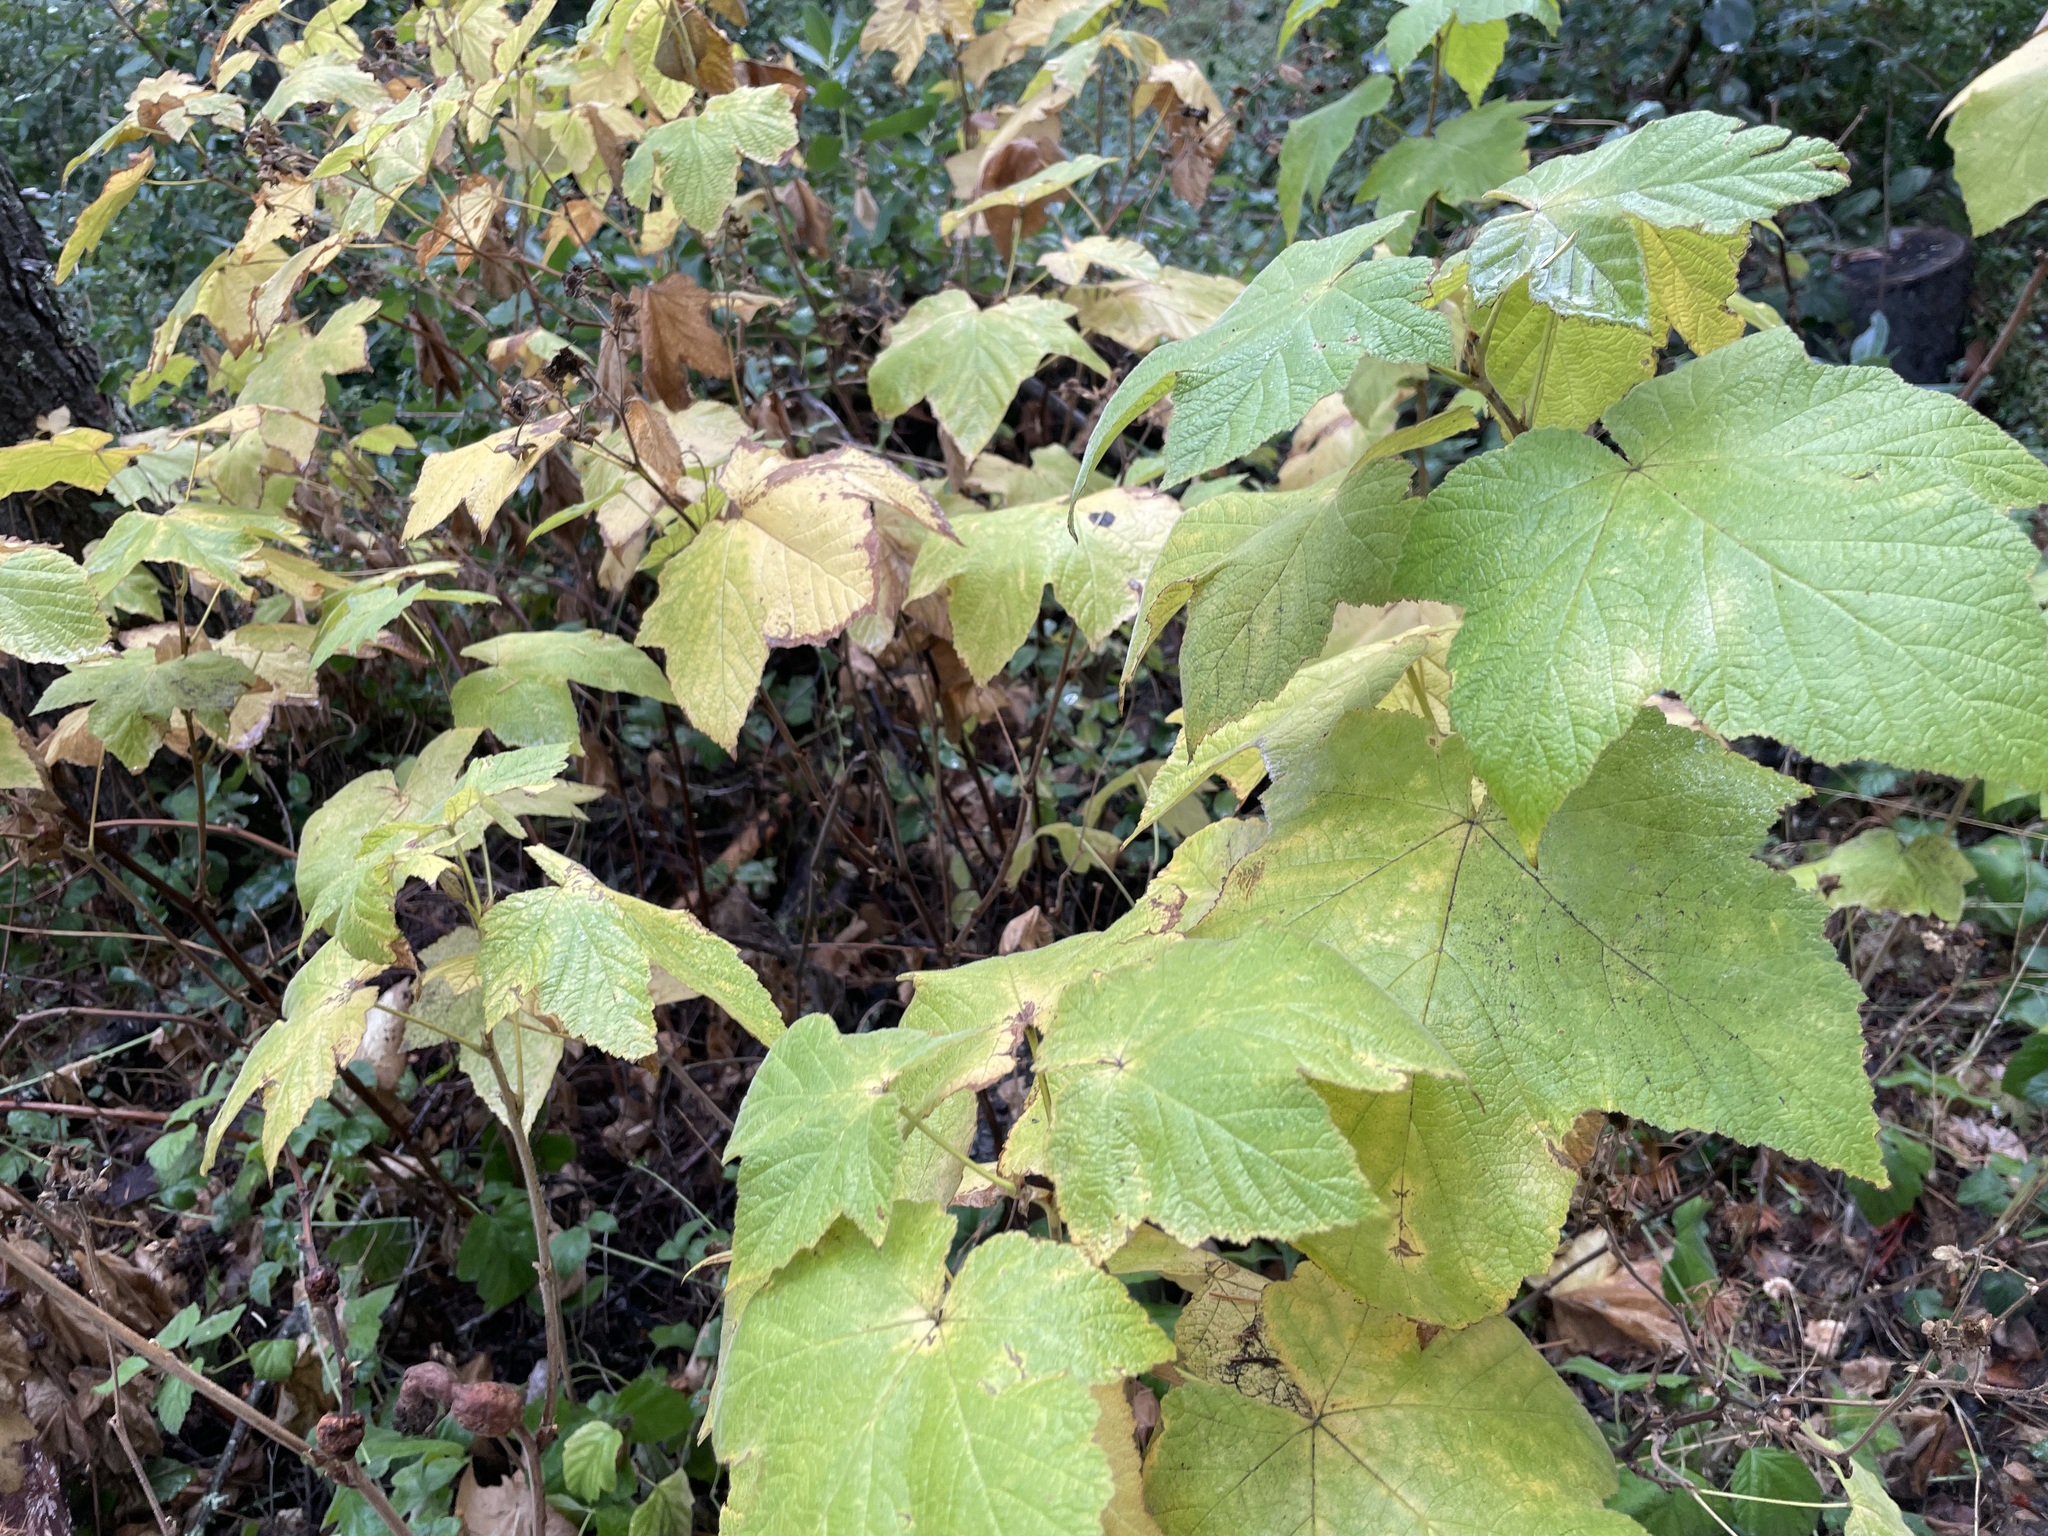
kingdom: Plantae
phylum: Tracheophyta
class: Magnoliopsida
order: Rosales
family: Rosaceae
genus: Rubus
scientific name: Rubus parviflorus
